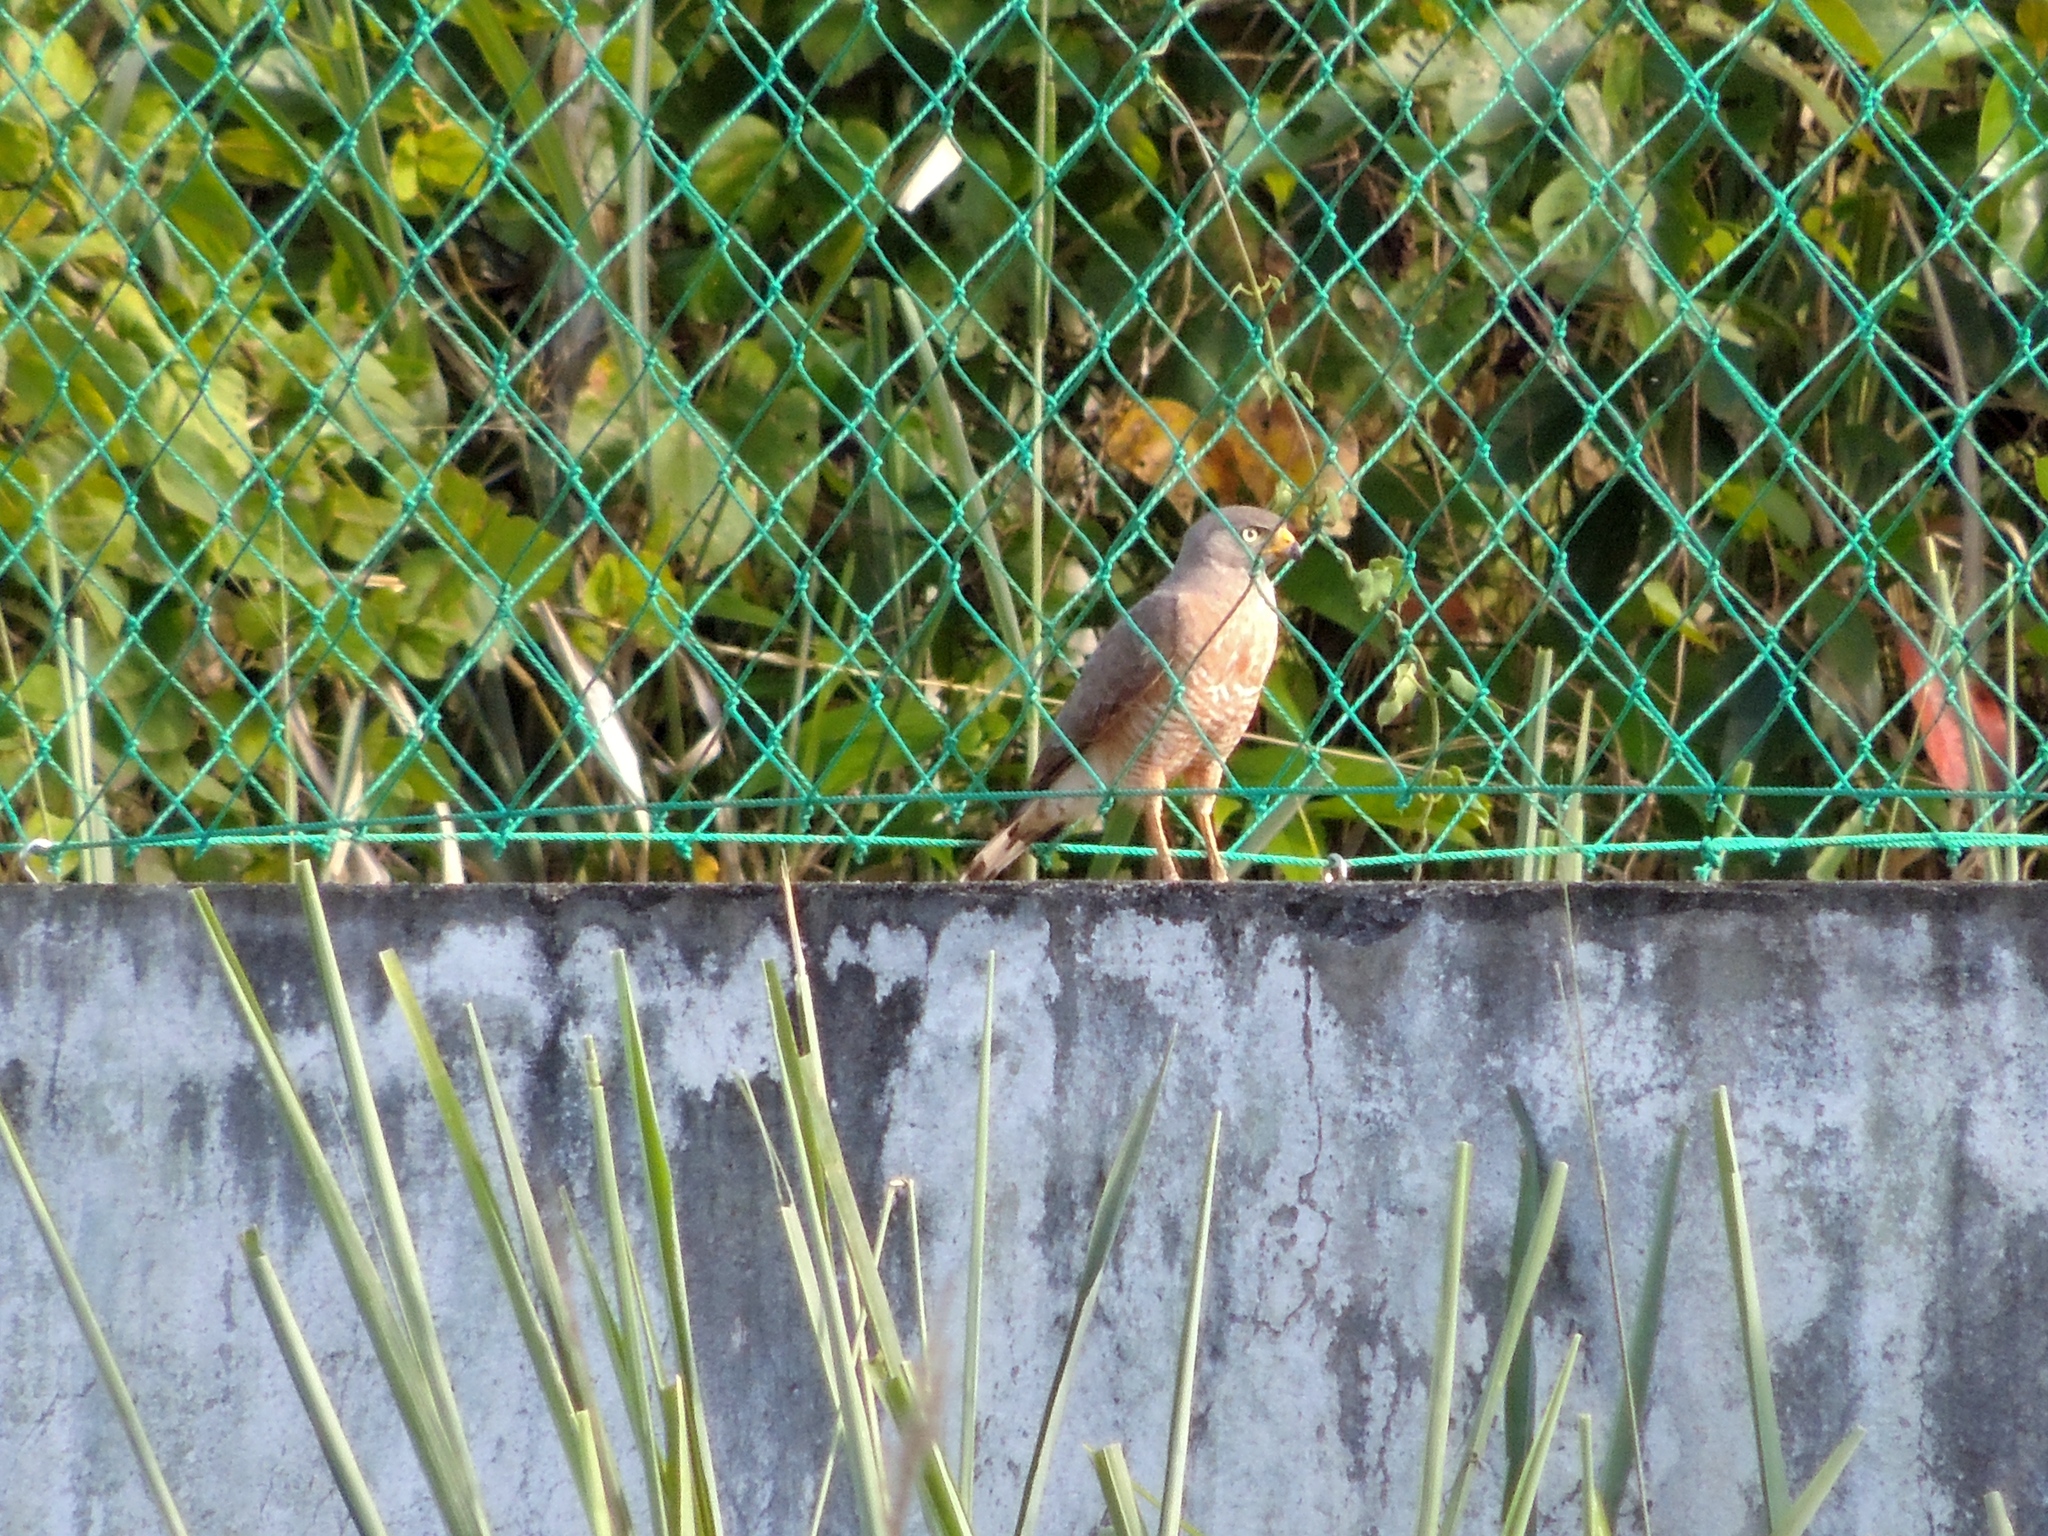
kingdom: Animalia
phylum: Chordata
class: Aves
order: Accipitriformes
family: Accipitridae
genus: Rupornis
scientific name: Rupornis magnirostris
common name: Roadside hawk
